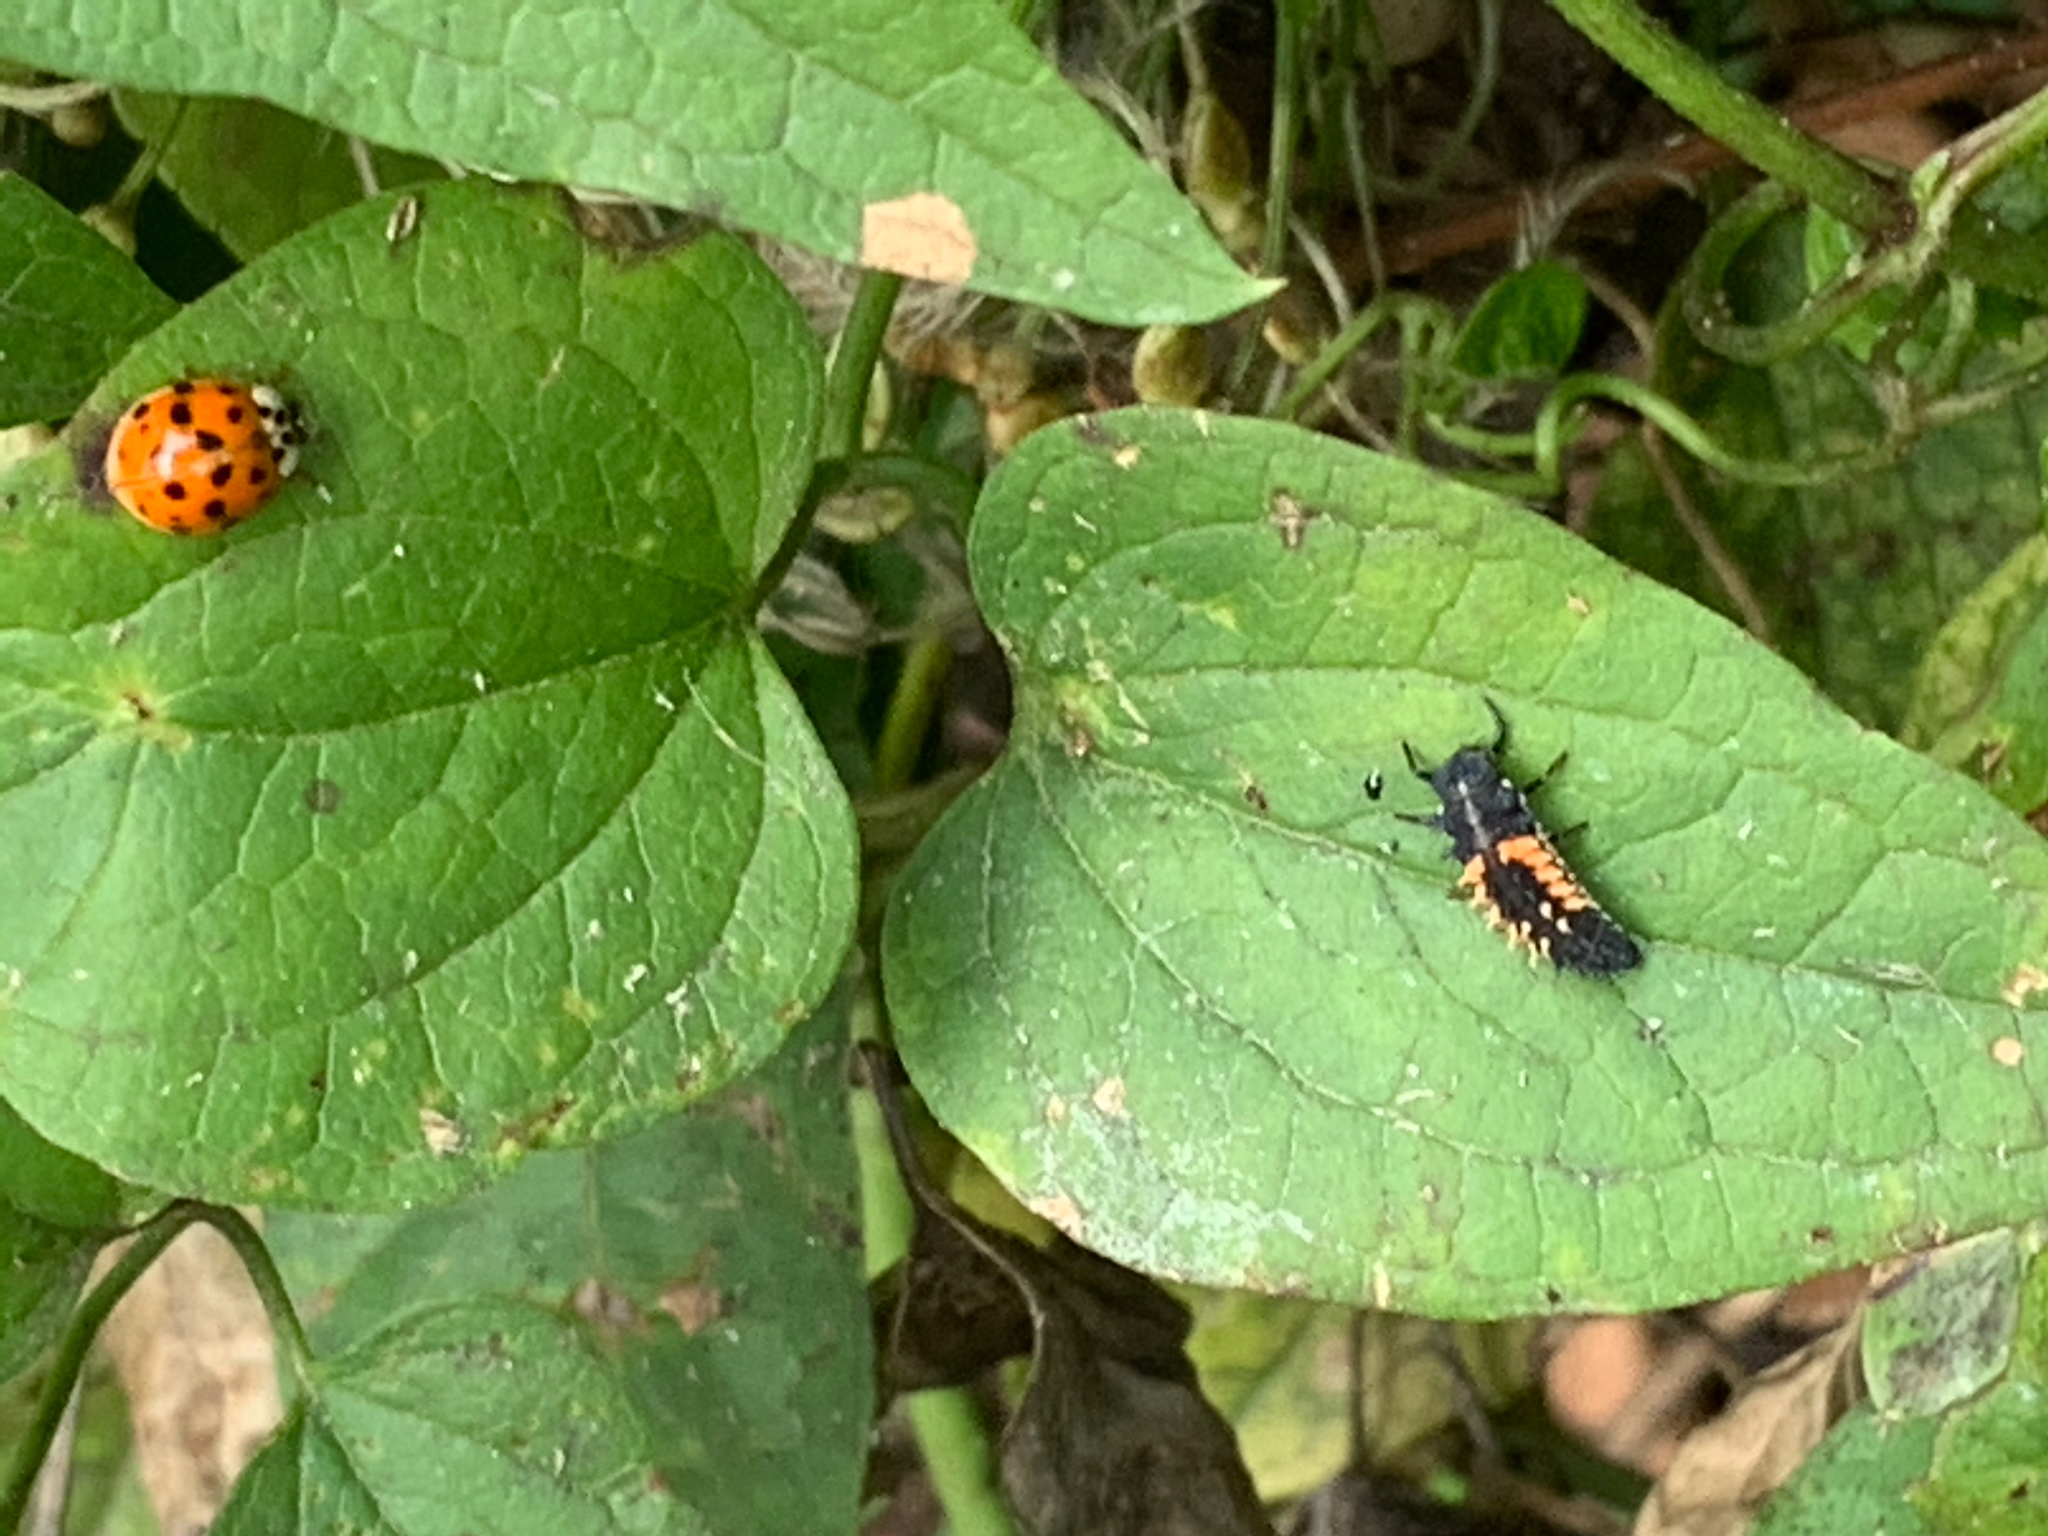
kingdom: Animalia
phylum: Arthropoda
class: Insecta
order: Coleoptera
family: Coccinellidae
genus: Harmonia
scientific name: Harmonia axyridis
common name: Harlequin ladybird
